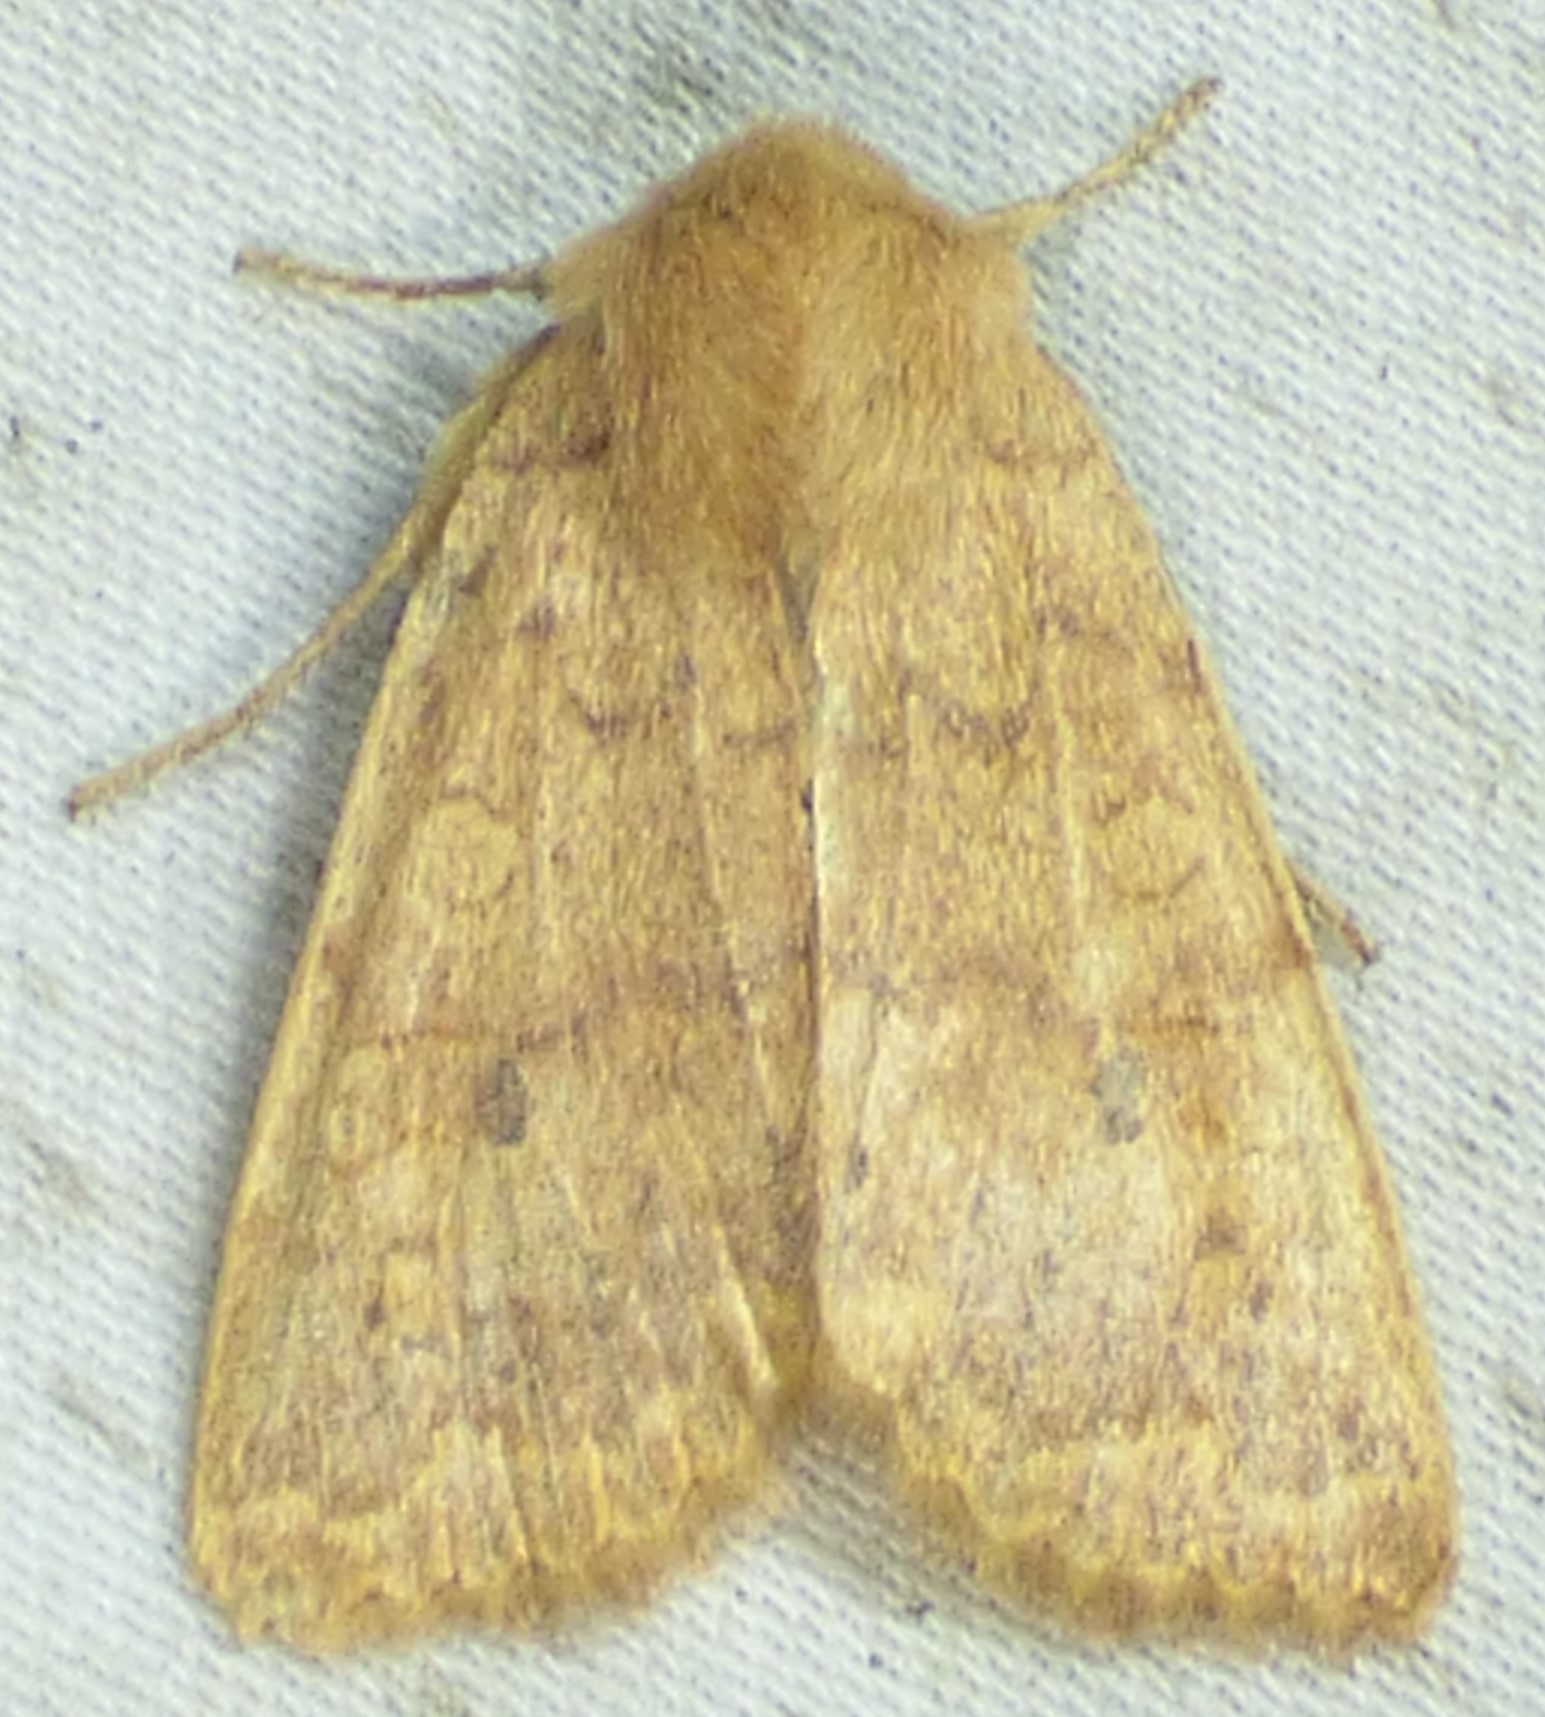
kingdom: Animalia
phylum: Arthropoda
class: Insecta
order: Lepidoptera
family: Noctuidae
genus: Agrochola
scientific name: Agrochola bicolorago
